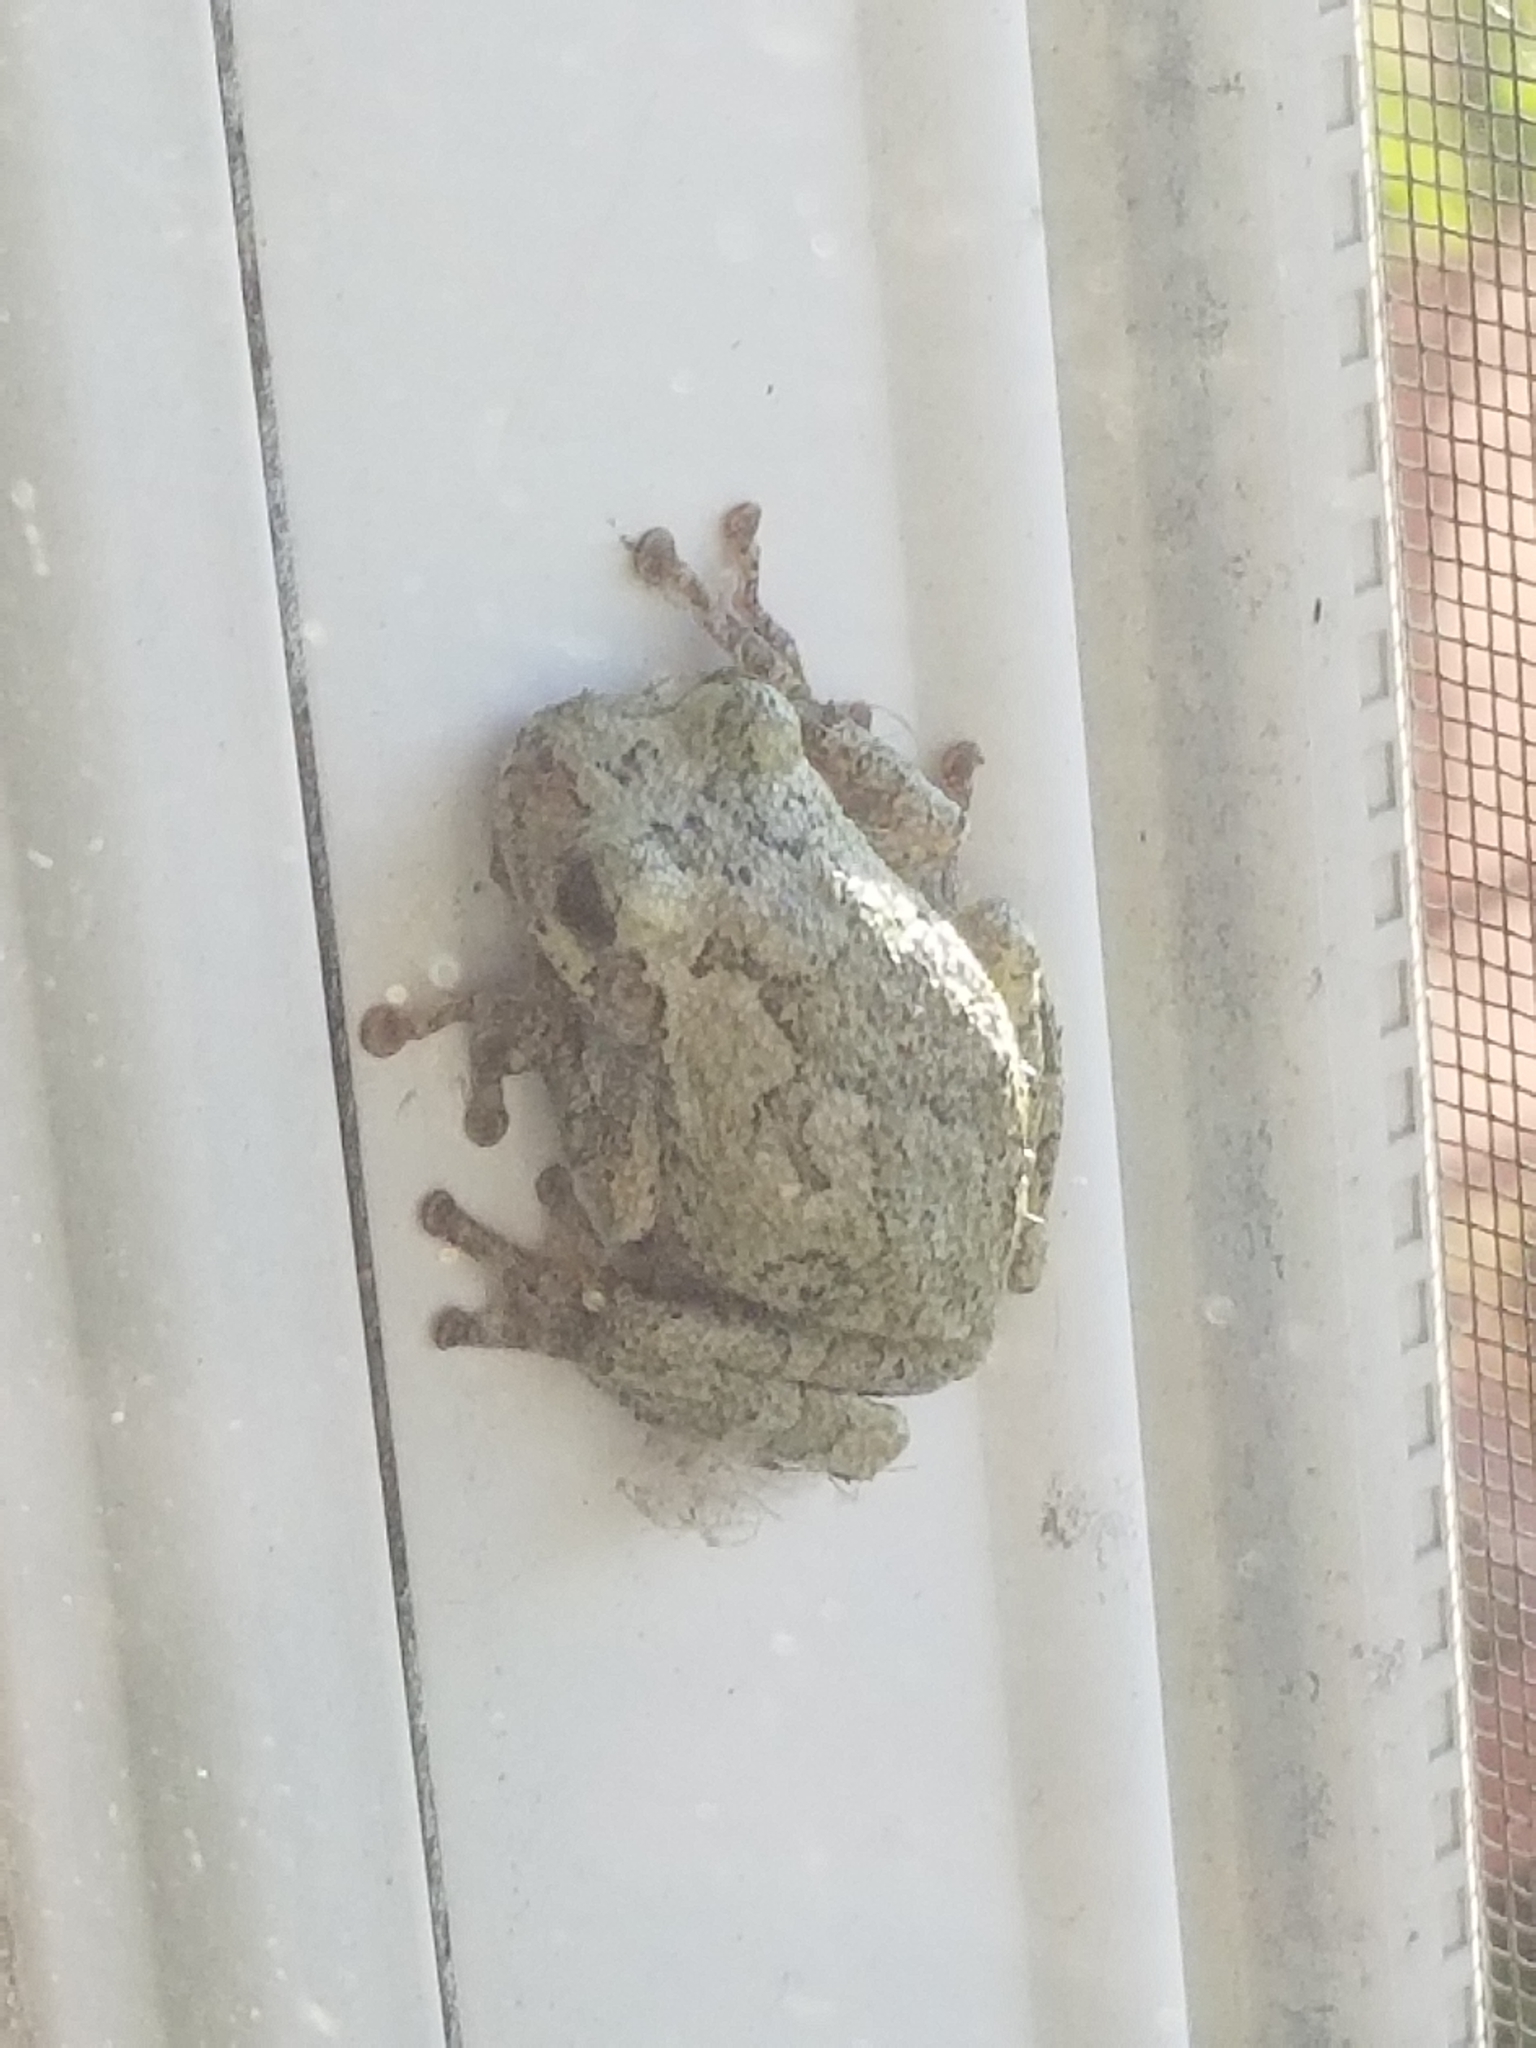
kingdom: Animalia
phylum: Chordata
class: Amphibia
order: Anura
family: Hylidae
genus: Hyla
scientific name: Hyla
